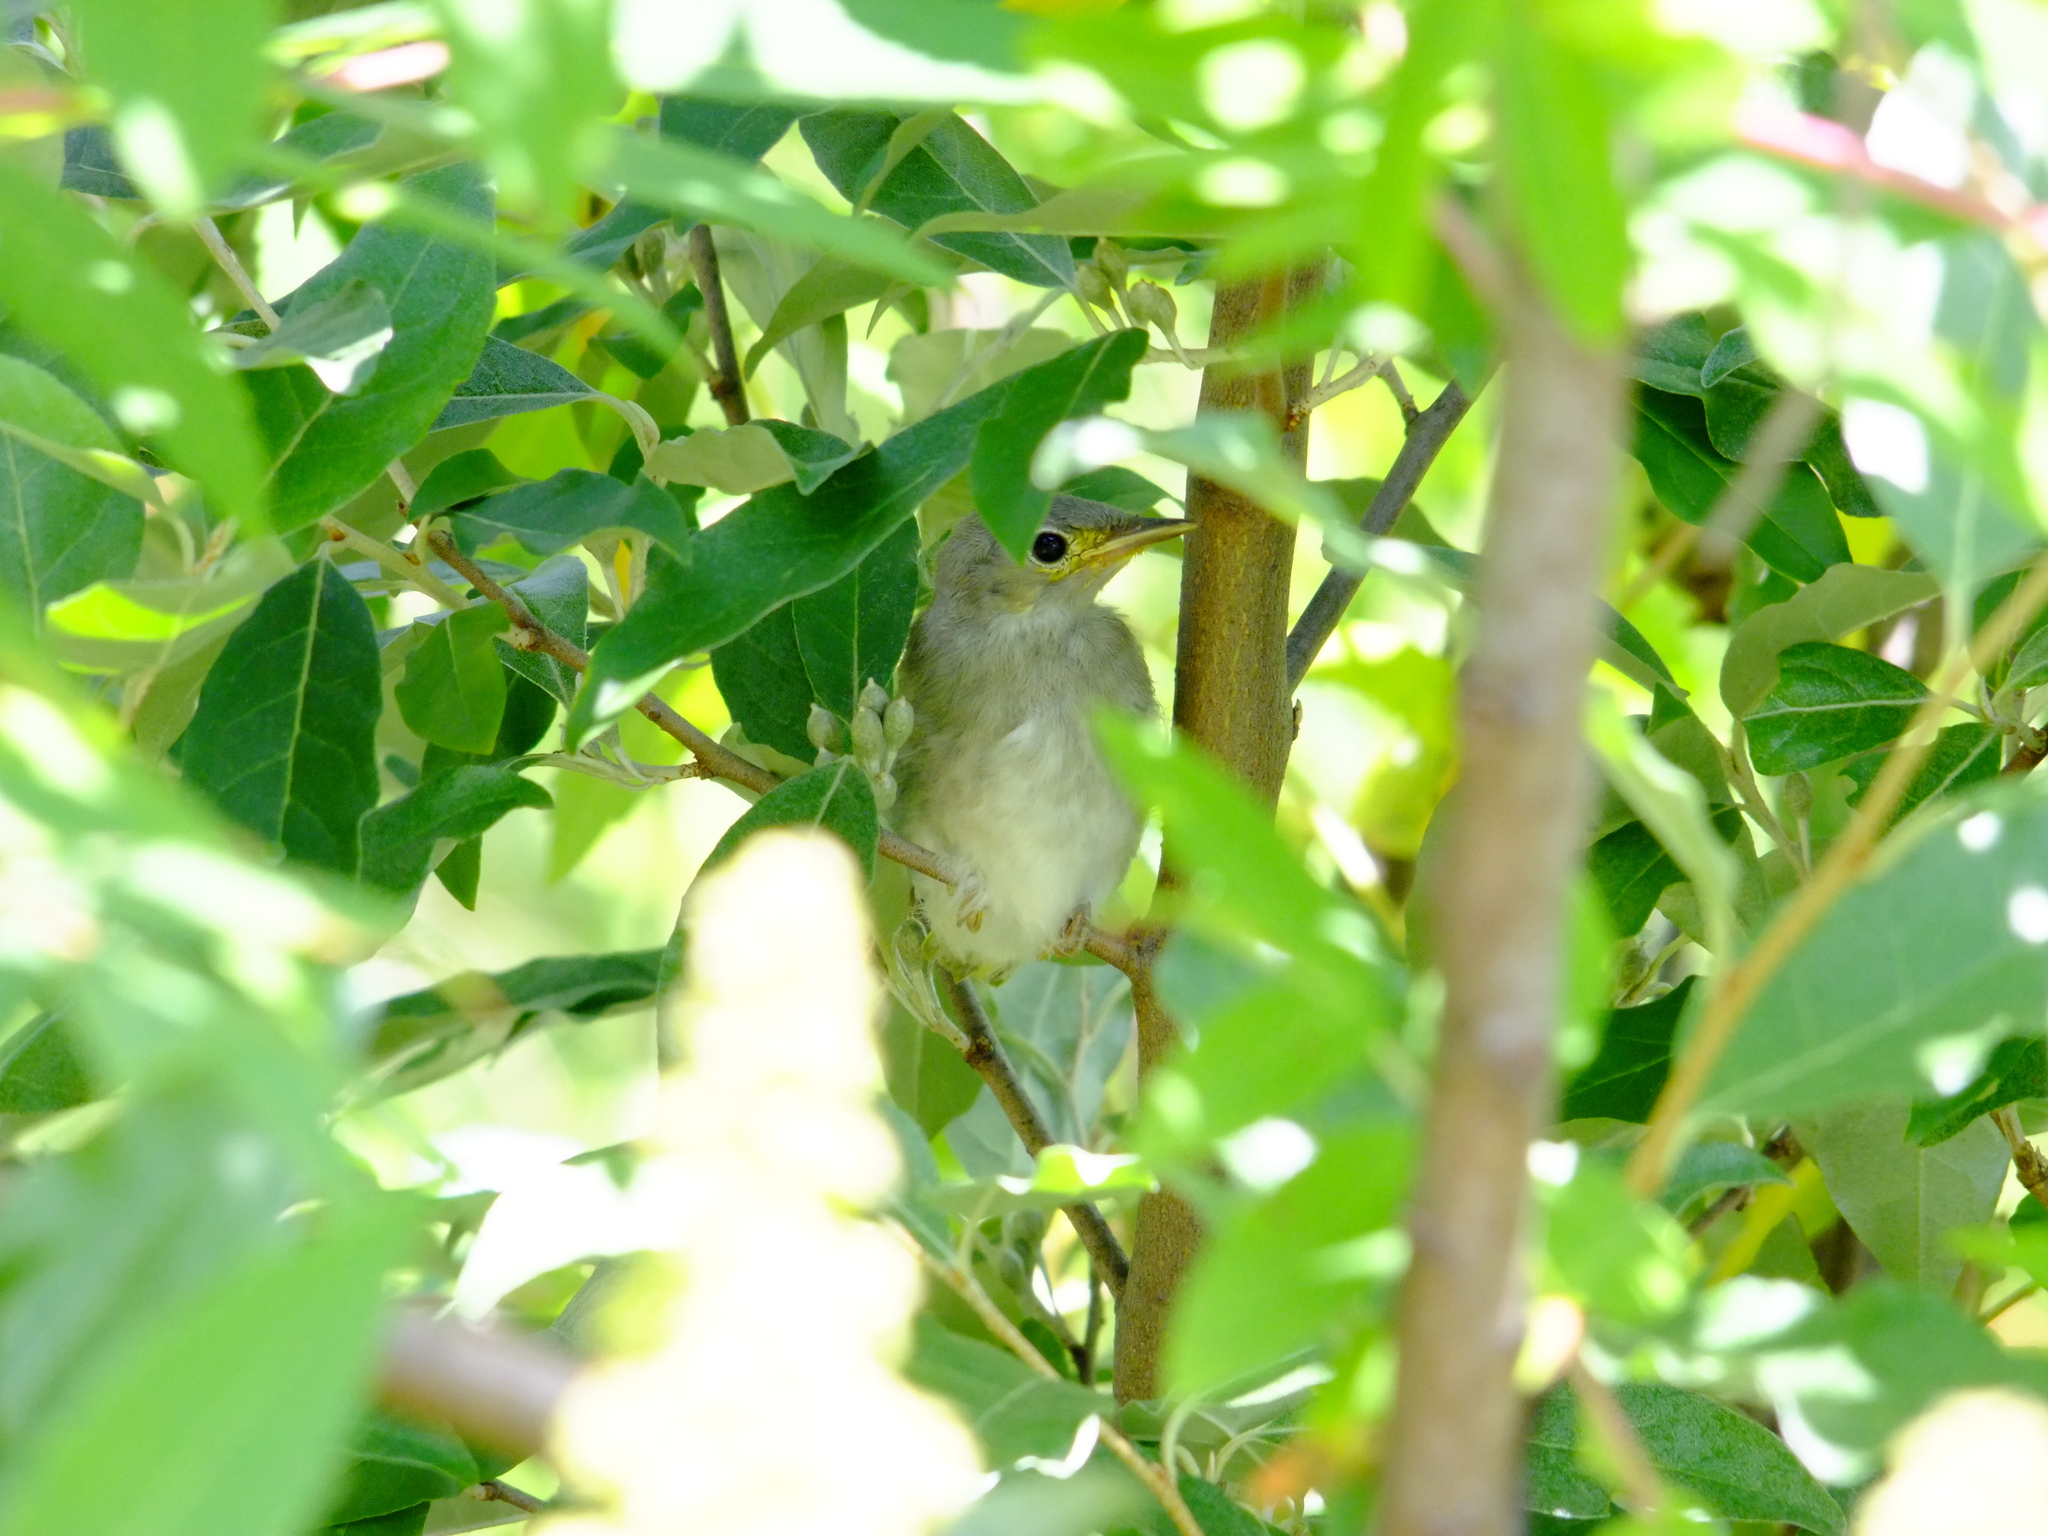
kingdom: Animalia
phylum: Chordata
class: Aves
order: Passeriformes
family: Parulidae
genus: Setophaga
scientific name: Setophaga petechia
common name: Yellow warbler
